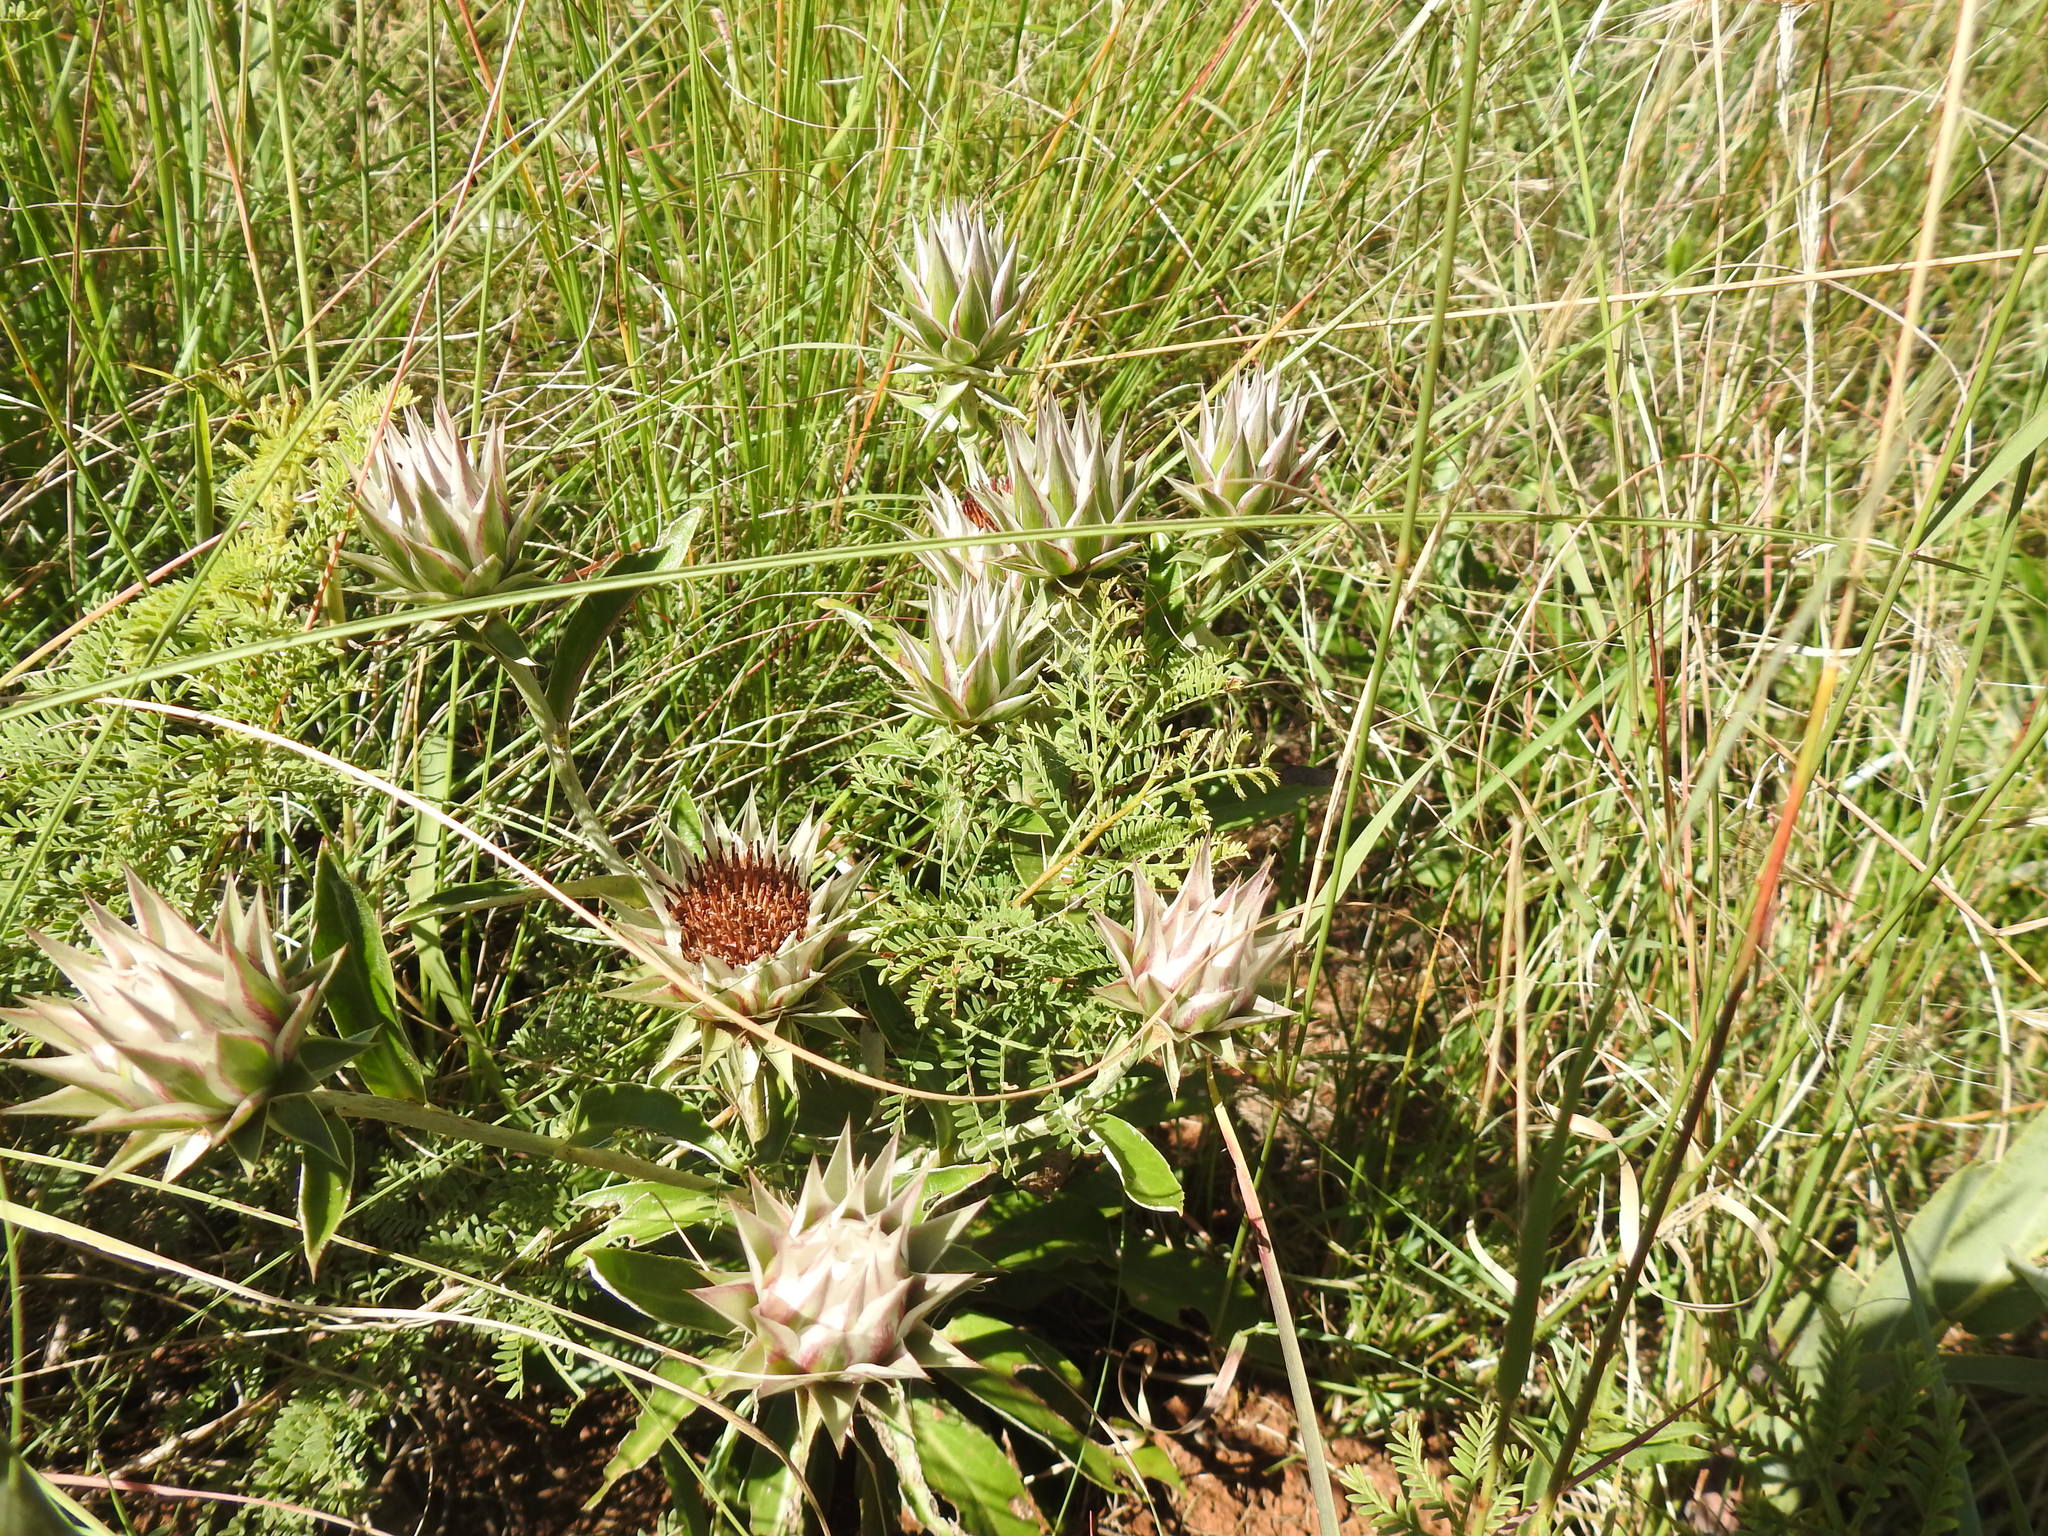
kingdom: Plantae
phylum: Tracheophyta
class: Magnoliopsida
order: Asterales
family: Asteraceae
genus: Macledium
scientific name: Macledium zeyheri
